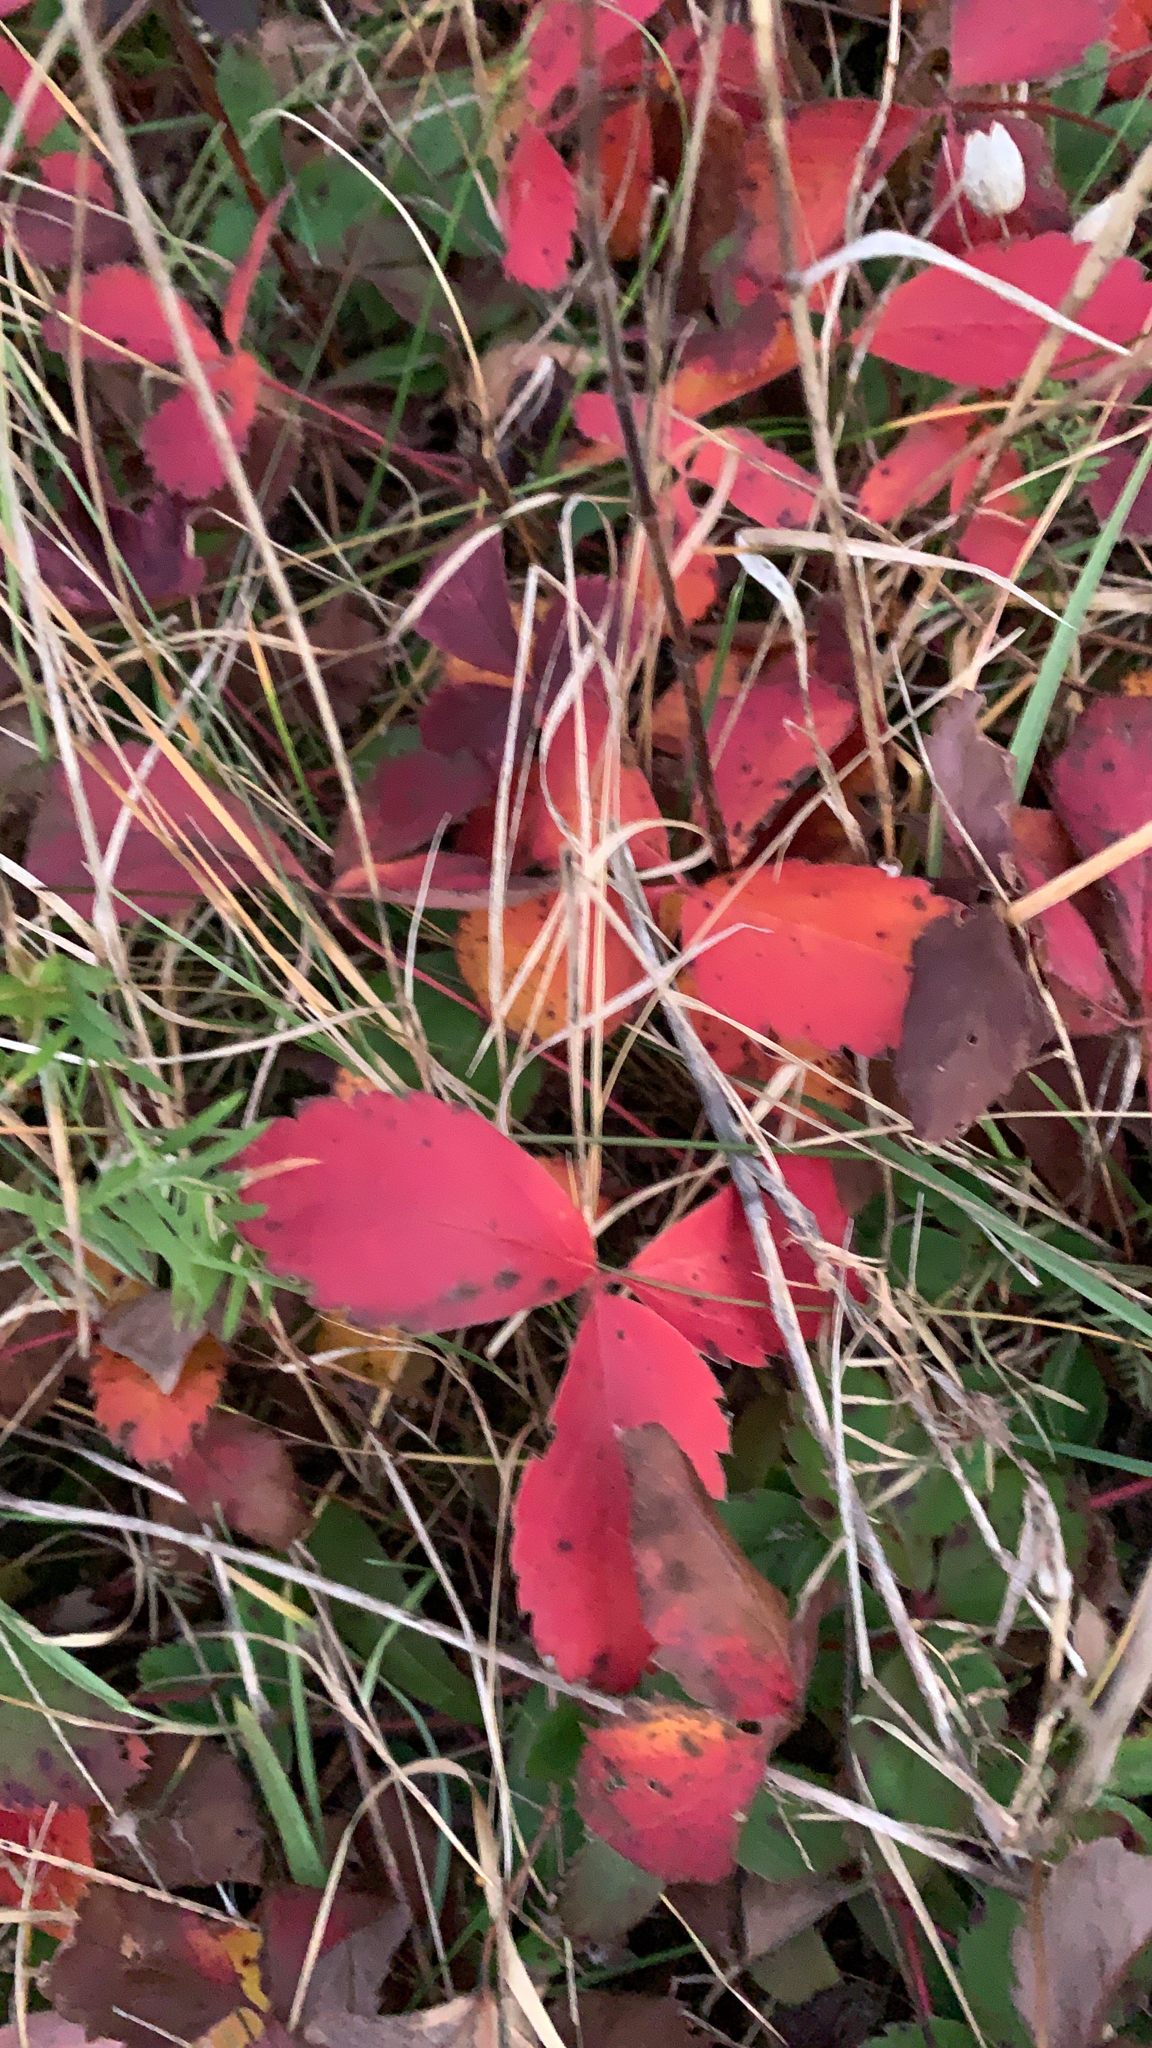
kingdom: Plantae
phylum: Tracheophyta
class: Magnoliopsida
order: Rosales
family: Rosaceae
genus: Fragaria
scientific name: Fragaria virginiana
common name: Thickleaved wild strawberry
